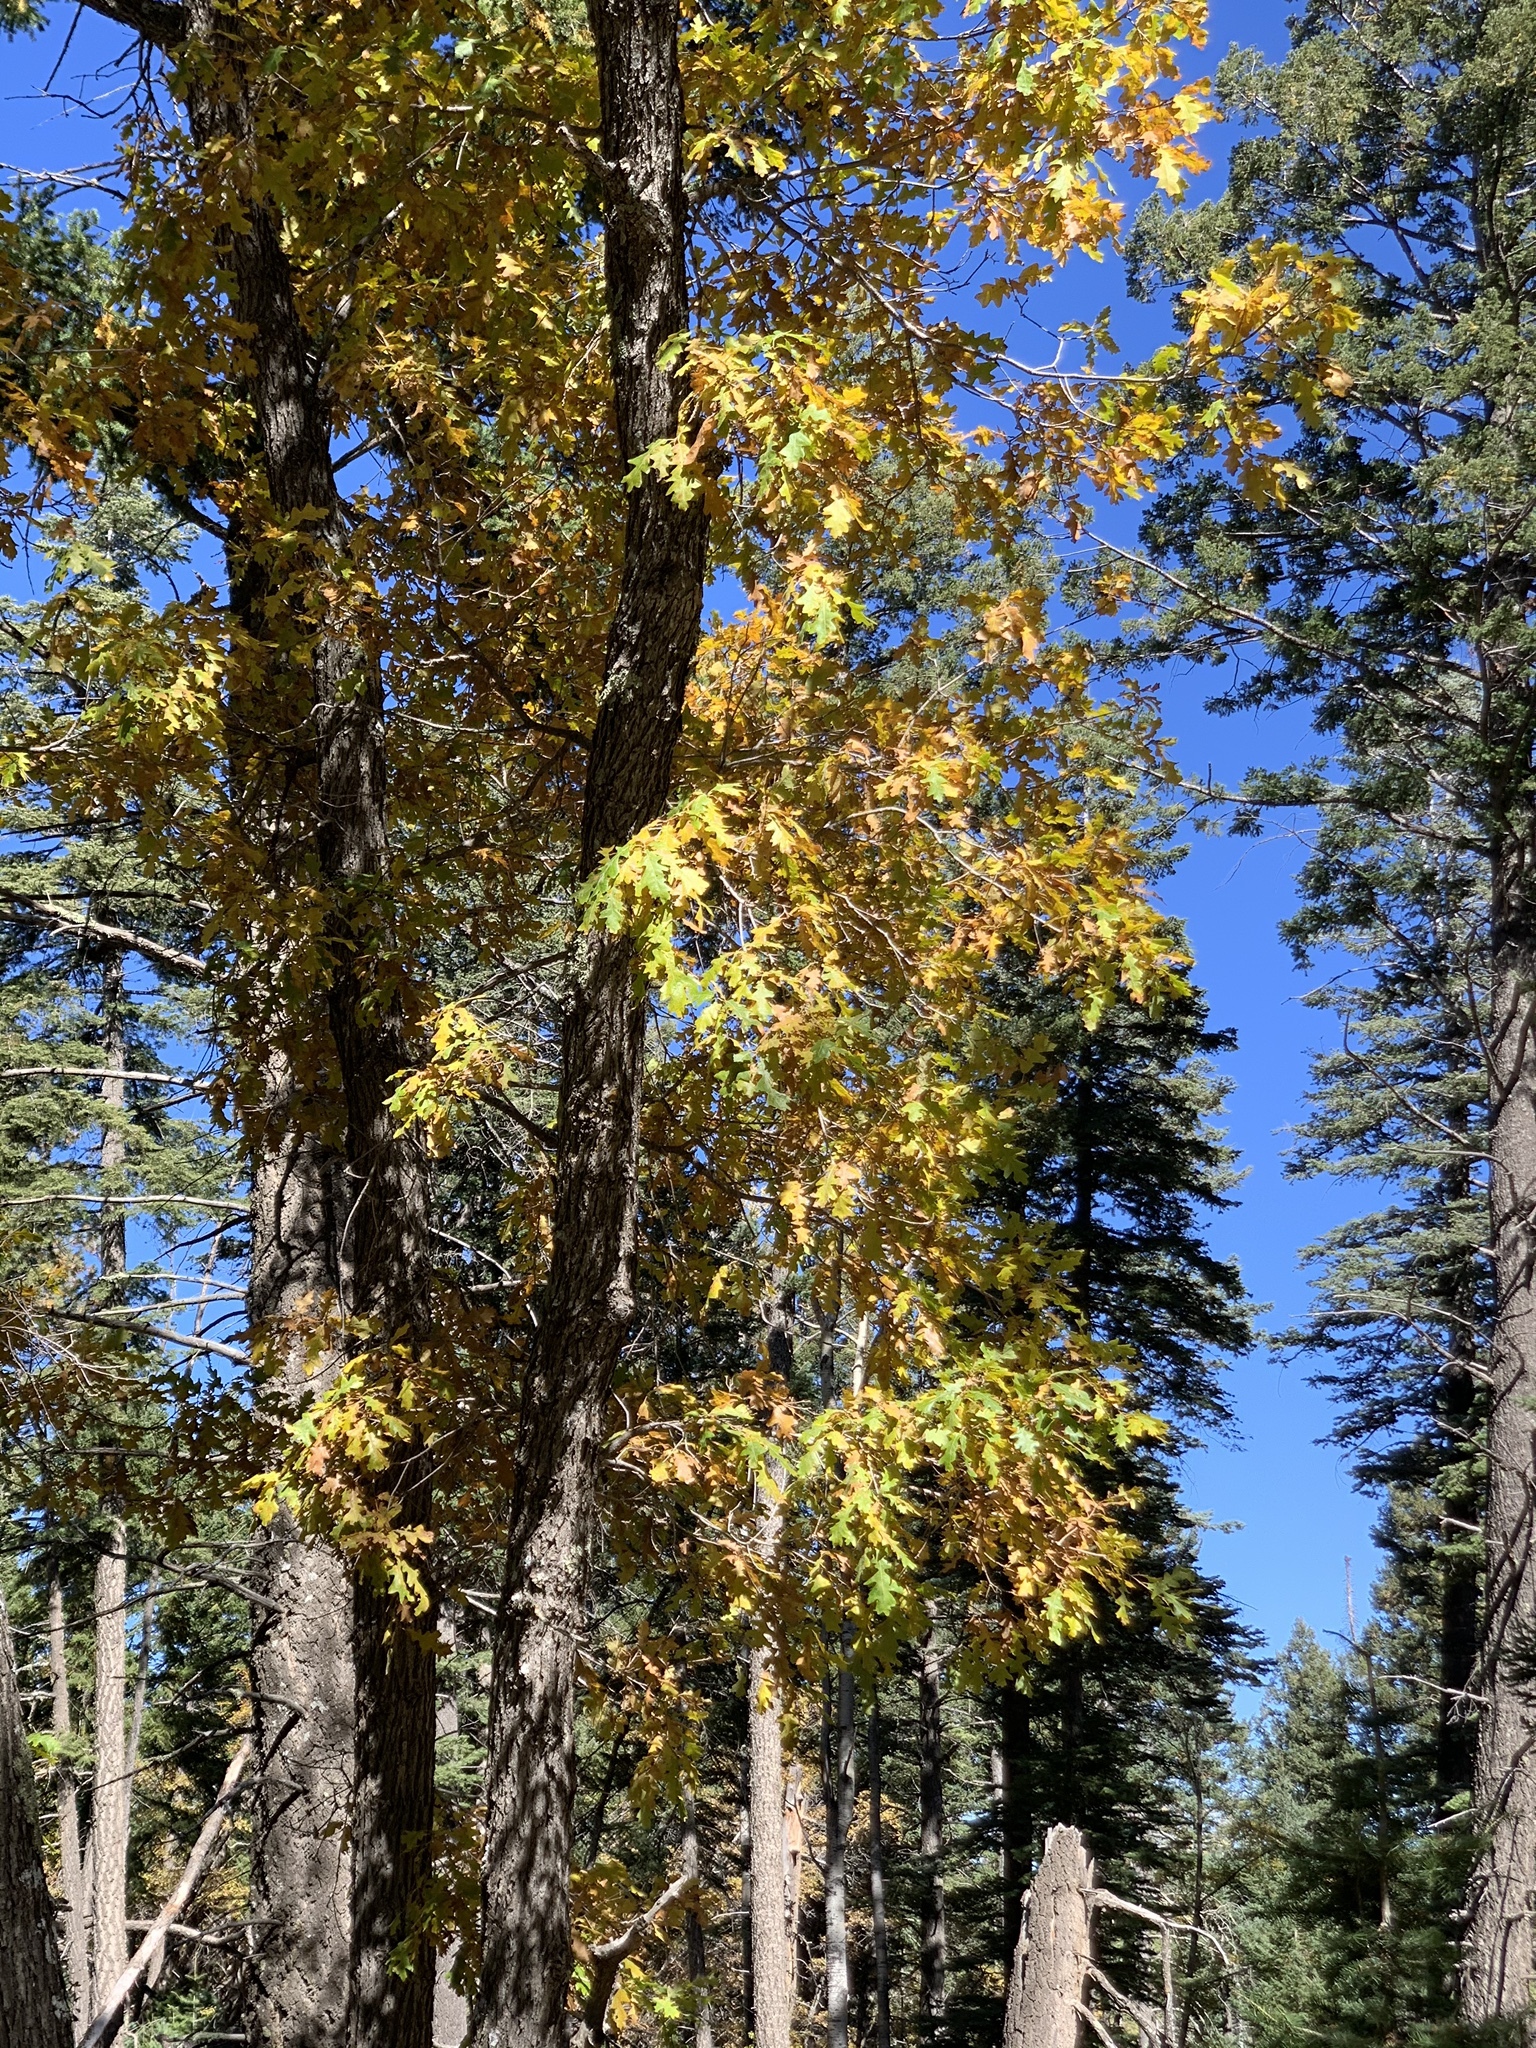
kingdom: Plantae
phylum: Tracheophyta
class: Magnoliopsida
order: Fagales
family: Fagaceae
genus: Quercus
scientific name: Quercus gambelii
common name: Gambel oak
